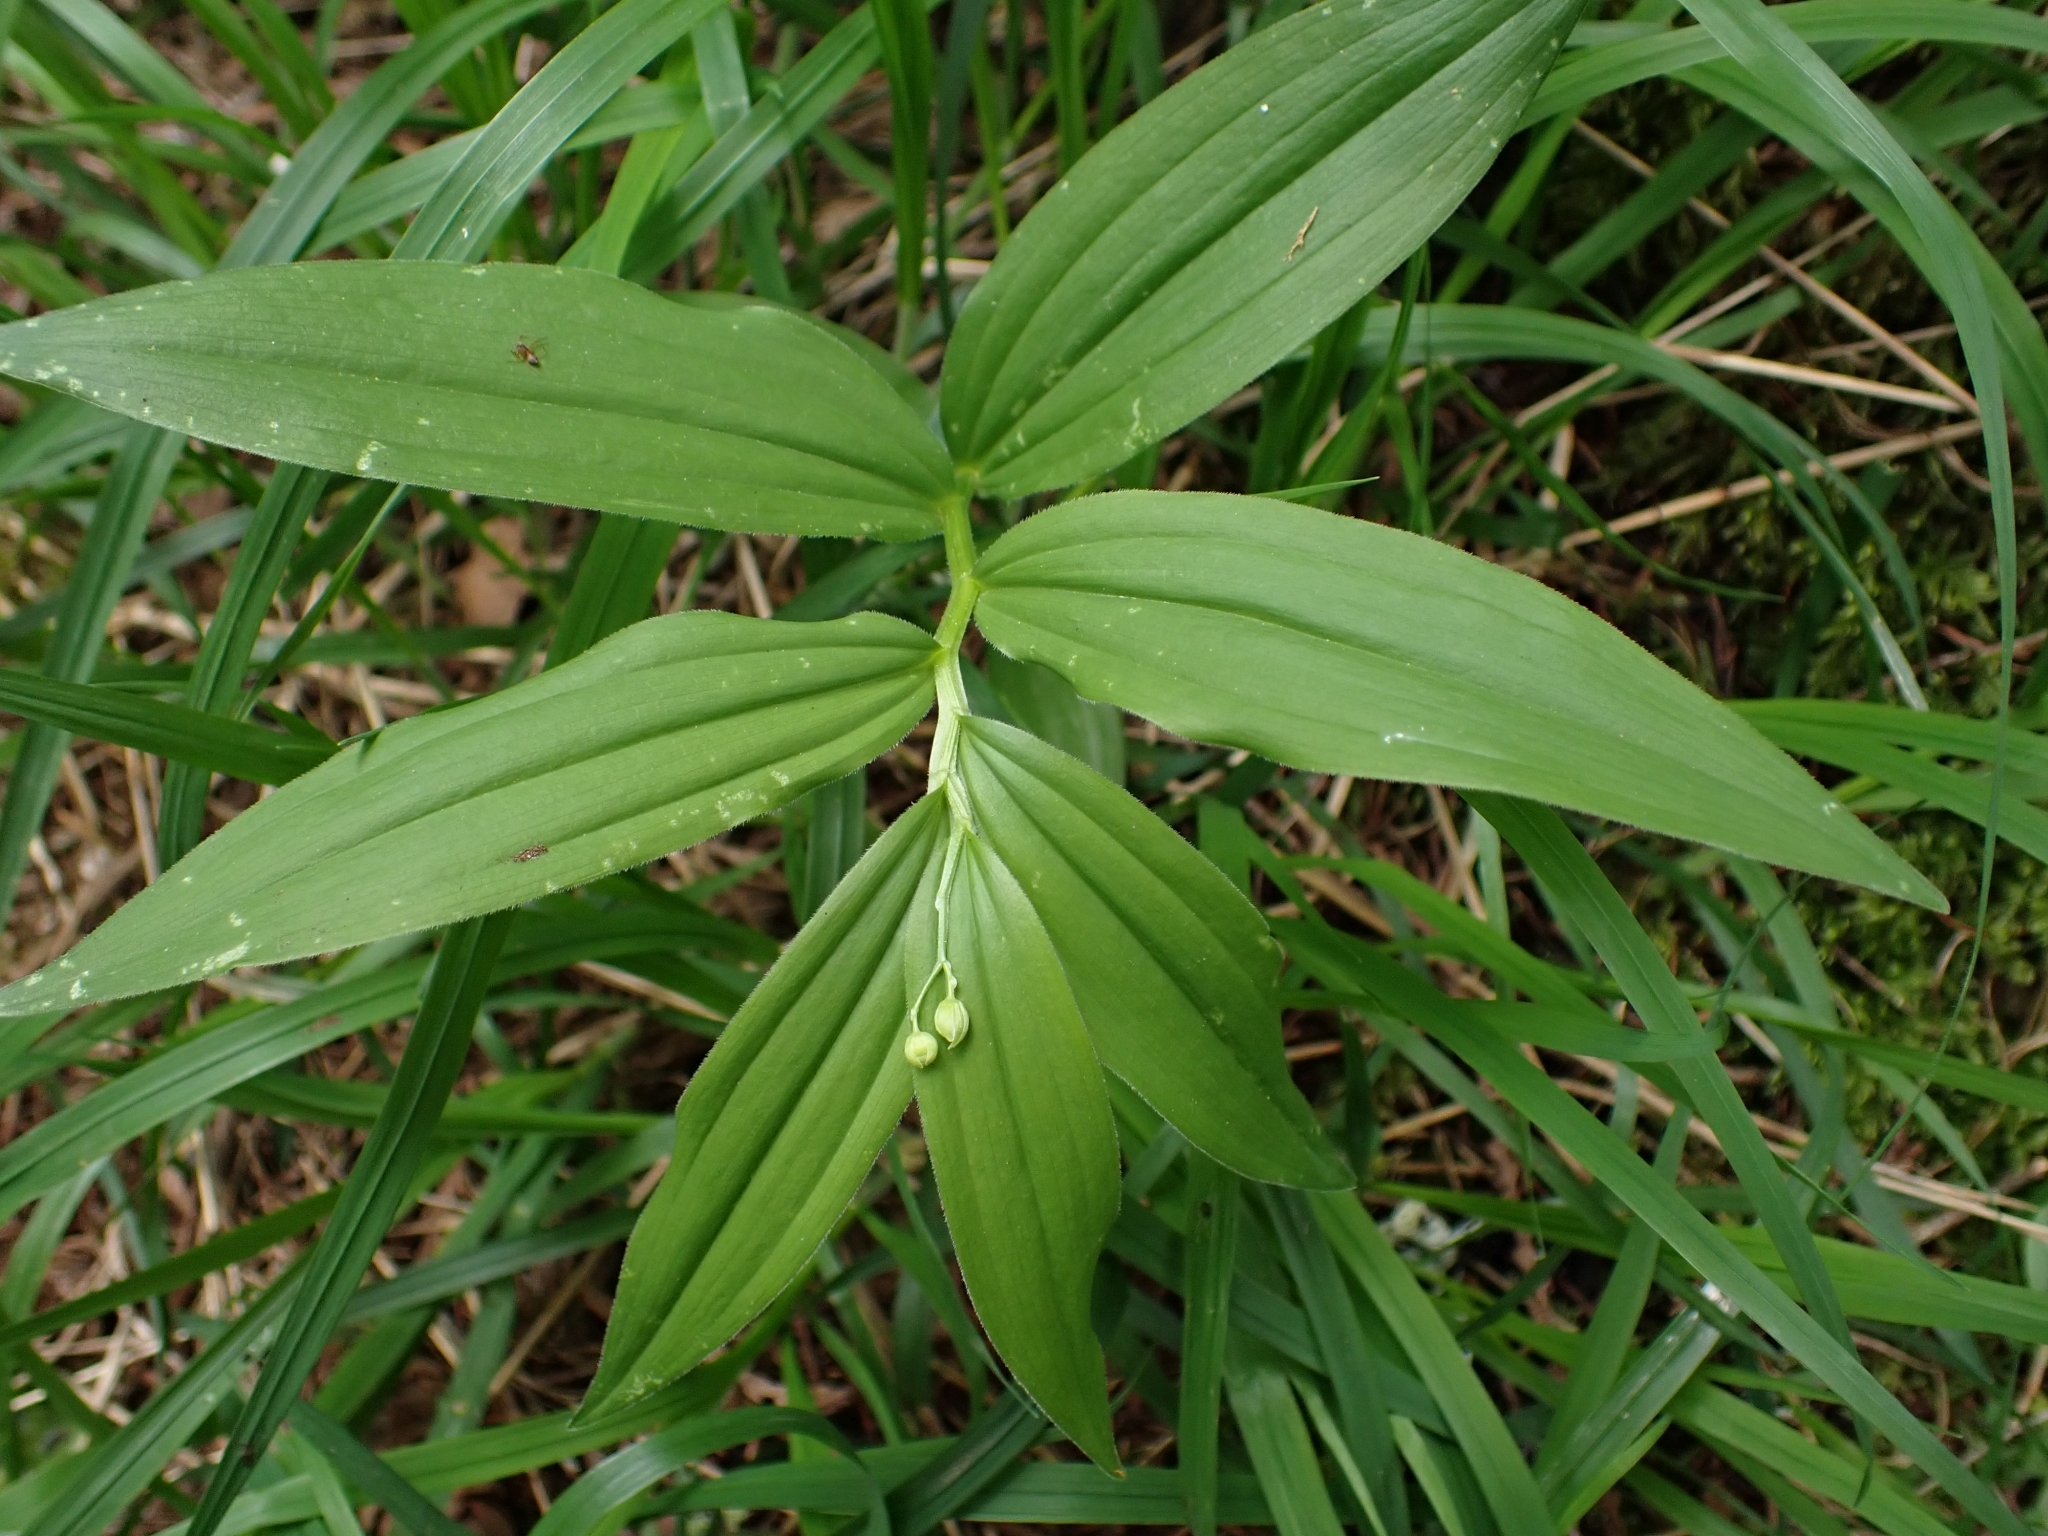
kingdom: Plantae
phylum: Tracheophyta
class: Liliopsida
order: Asparagales
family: Asparagaceae
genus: Maianthemum
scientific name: Maianthemum stellatum
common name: Little false solomon's seal
